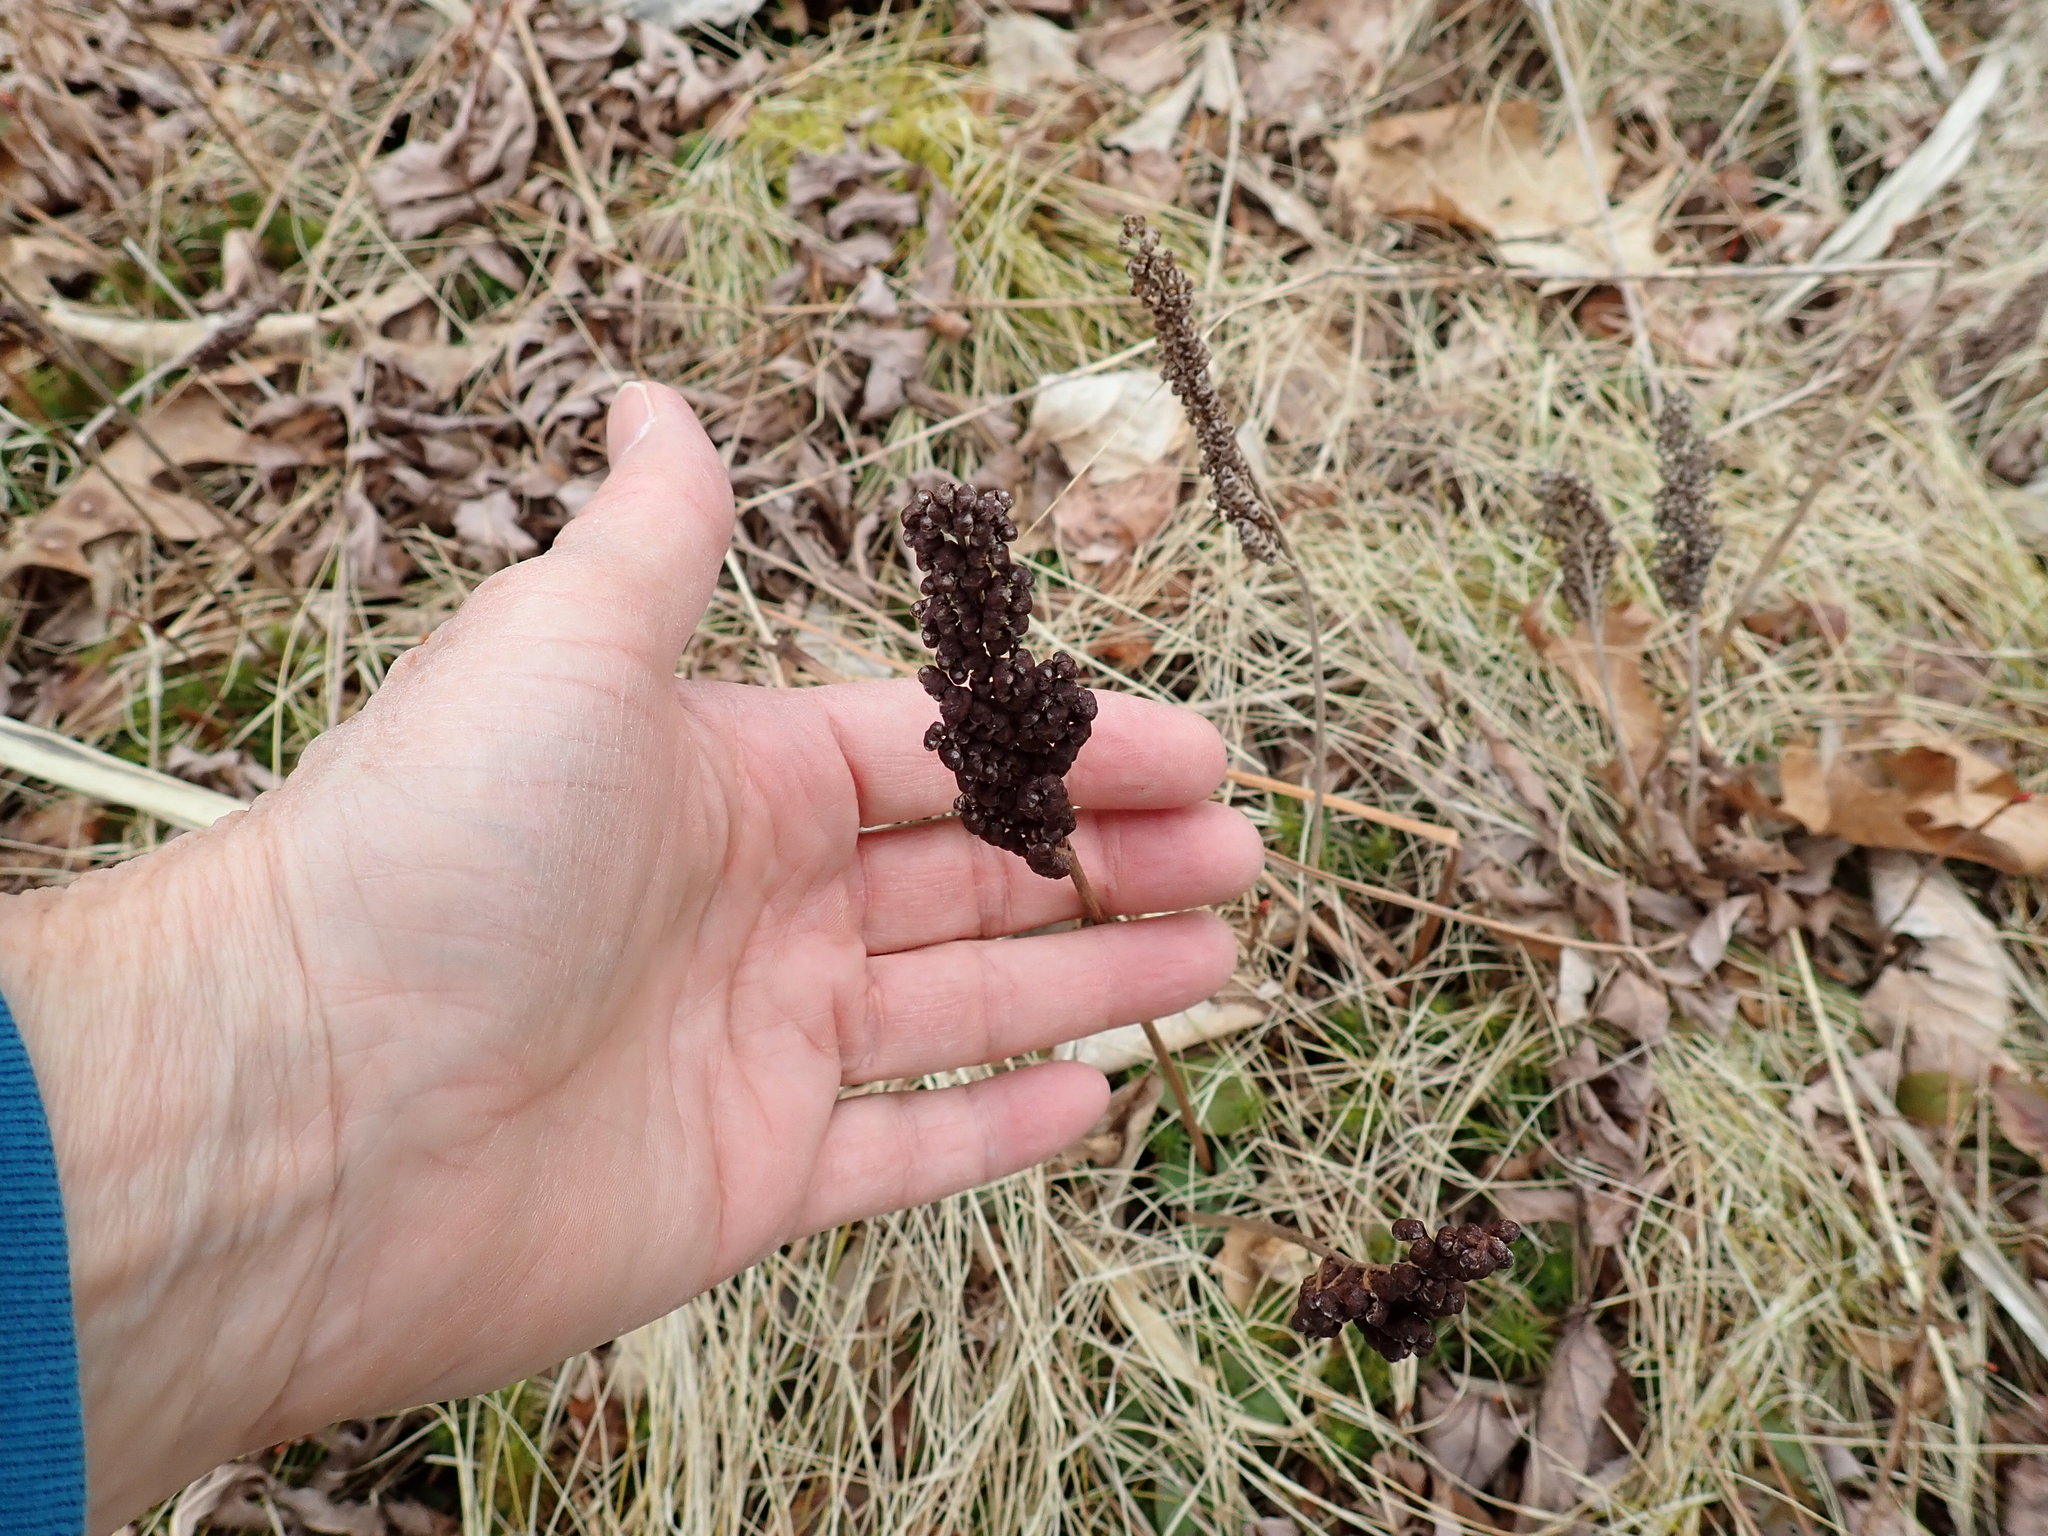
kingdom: Plantae
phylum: Tracheophyta
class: Polypodiopsida
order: Polypodiales
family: Onocleaceae
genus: Onoclea
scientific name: Onoclea sensibilis
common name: Sensitive fern
